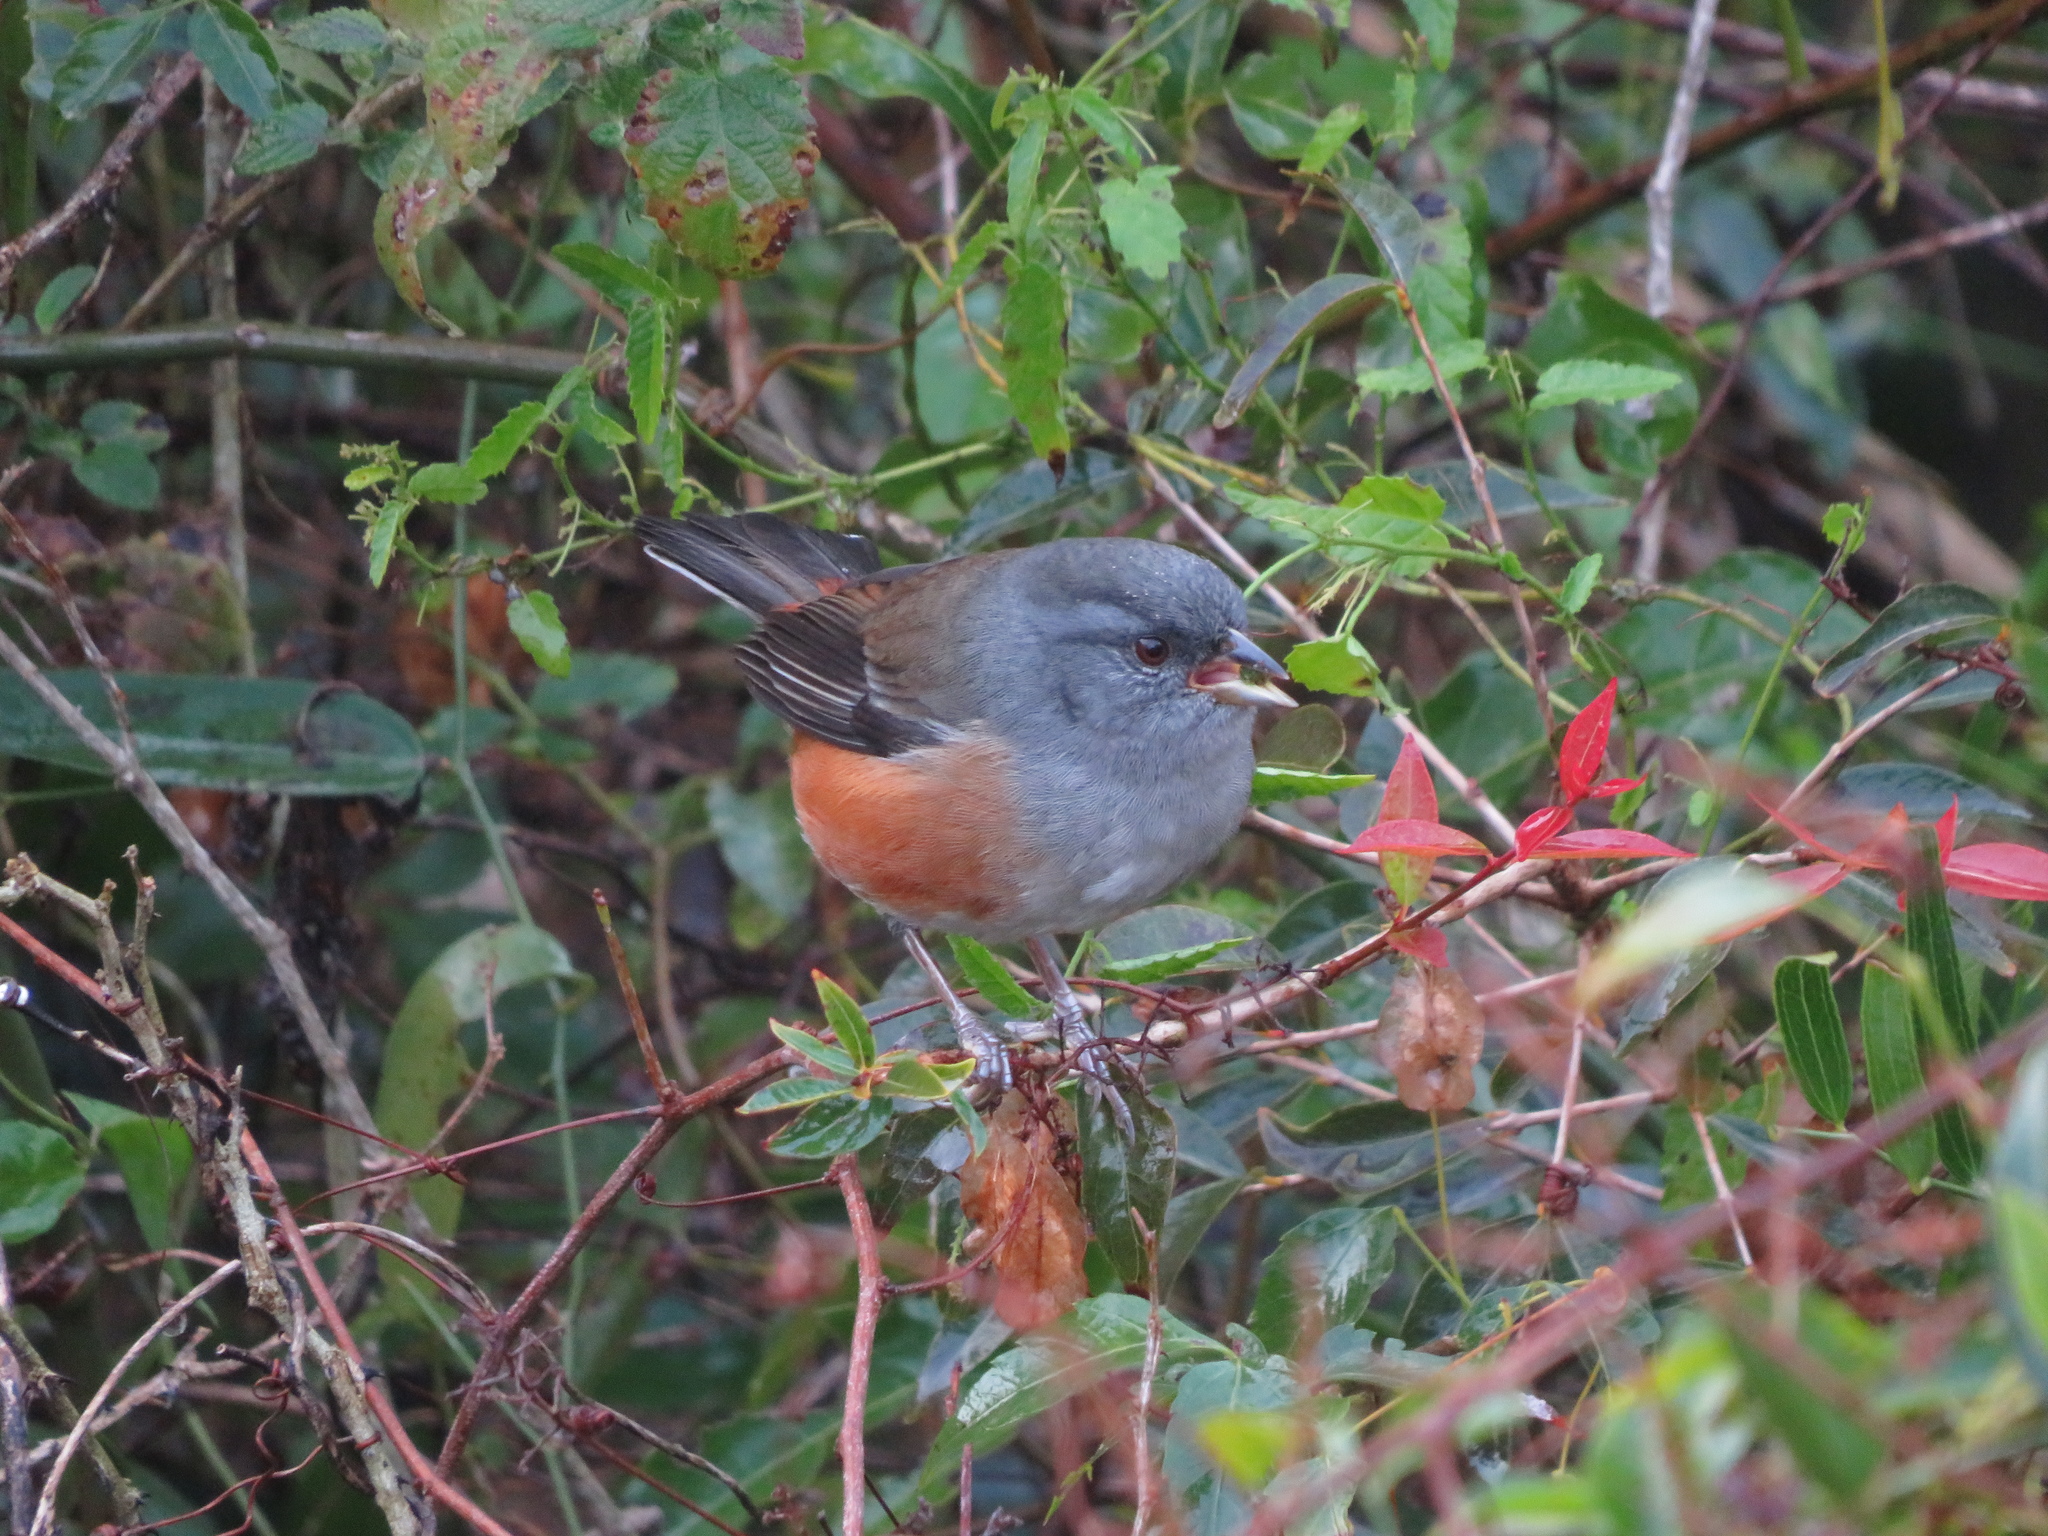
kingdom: Animalia
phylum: Chordata
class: Aves
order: Passeriformes
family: Thraupidae
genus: Microspingus
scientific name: Microspingus cabanisi
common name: Gray-throated warbling-finch
